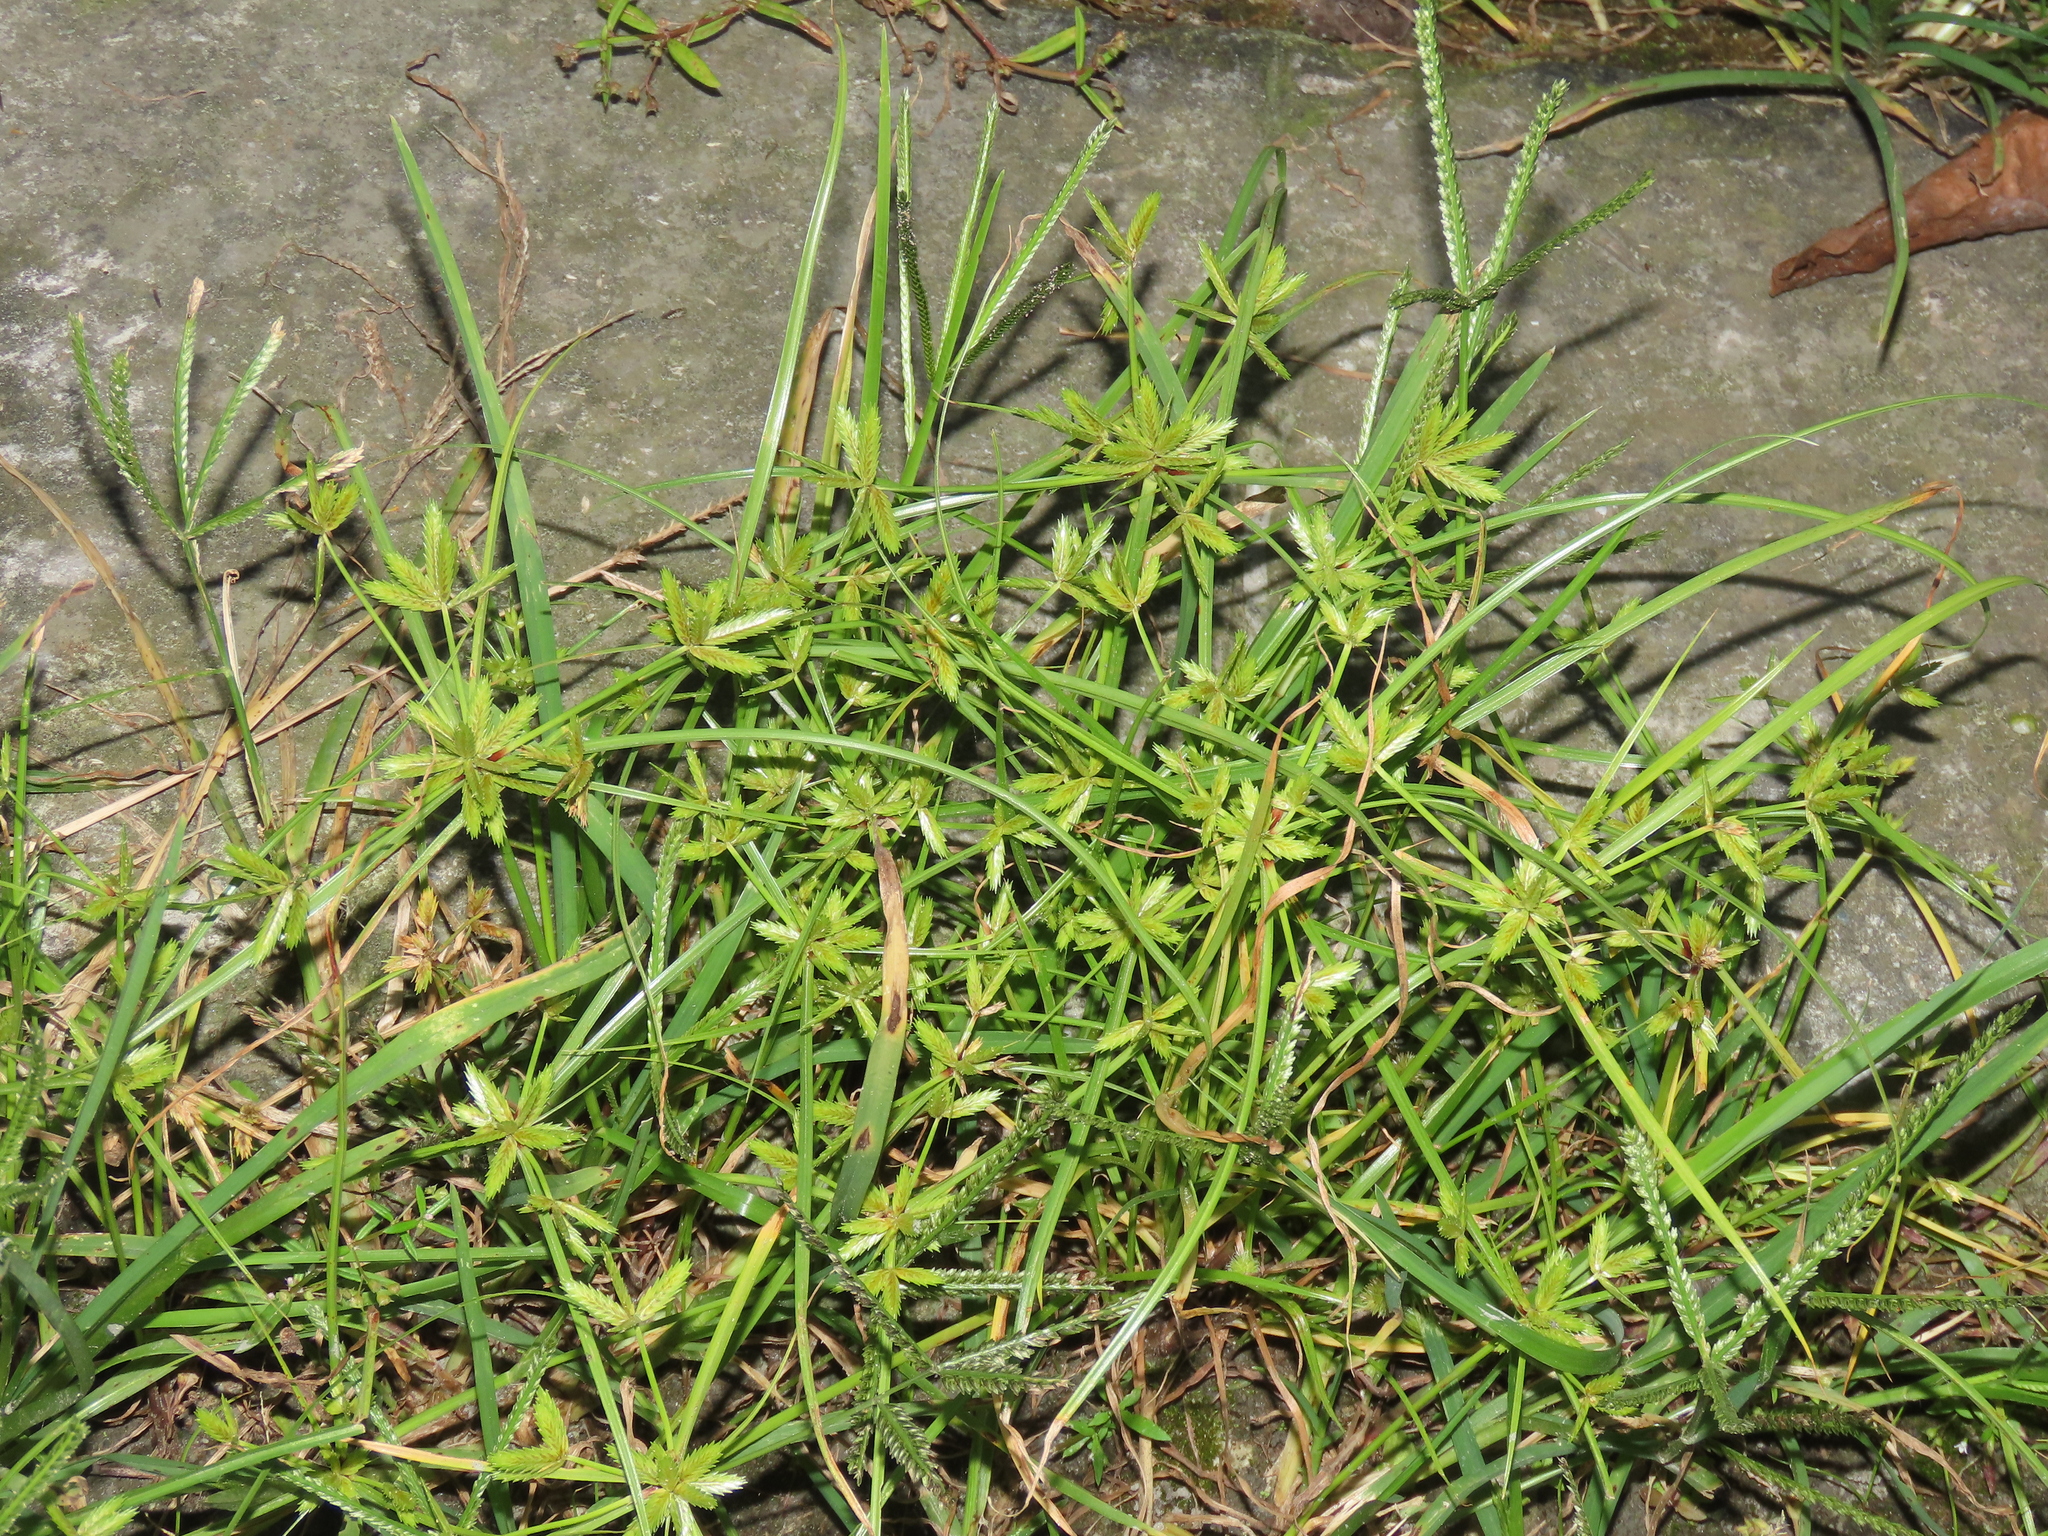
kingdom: Plantae
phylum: Tracheophyta
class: Liliopsida
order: Poales
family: Cyperaceae
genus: Cyperus
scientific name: Cyperus compressus
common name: Poorland flatsedge
